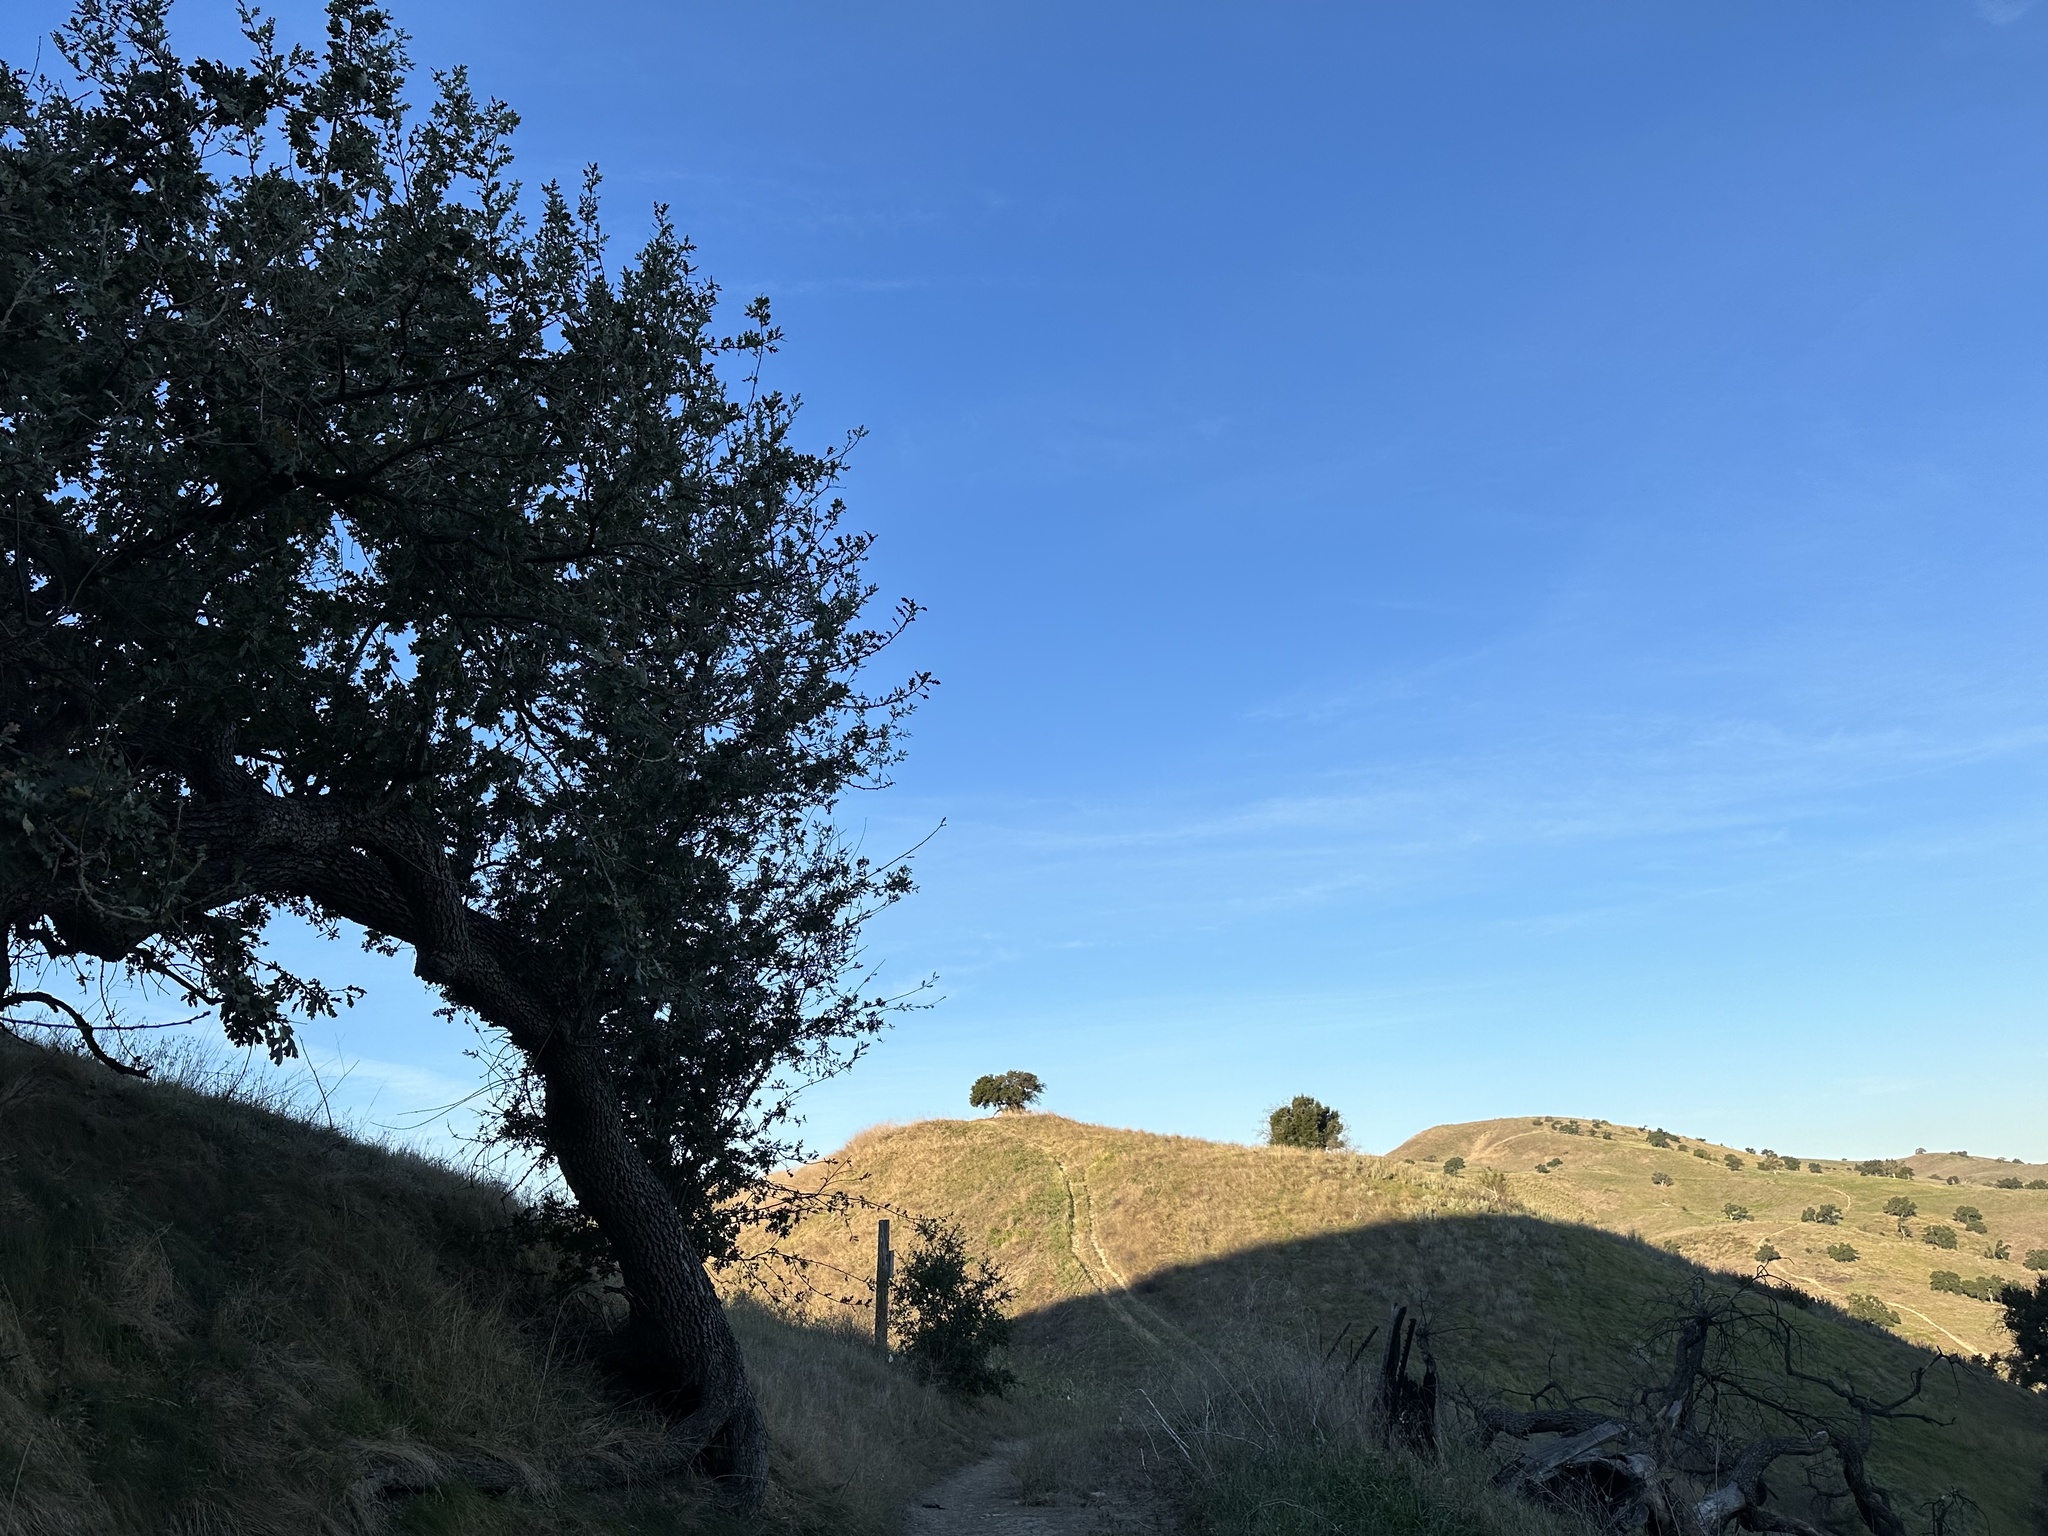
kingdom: Plantae
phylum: Tracheophyta
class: Magnoliopsida
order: Fagales
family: Fagaceae
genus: Quercus
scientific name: Quercus lobata
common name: Valley oak
